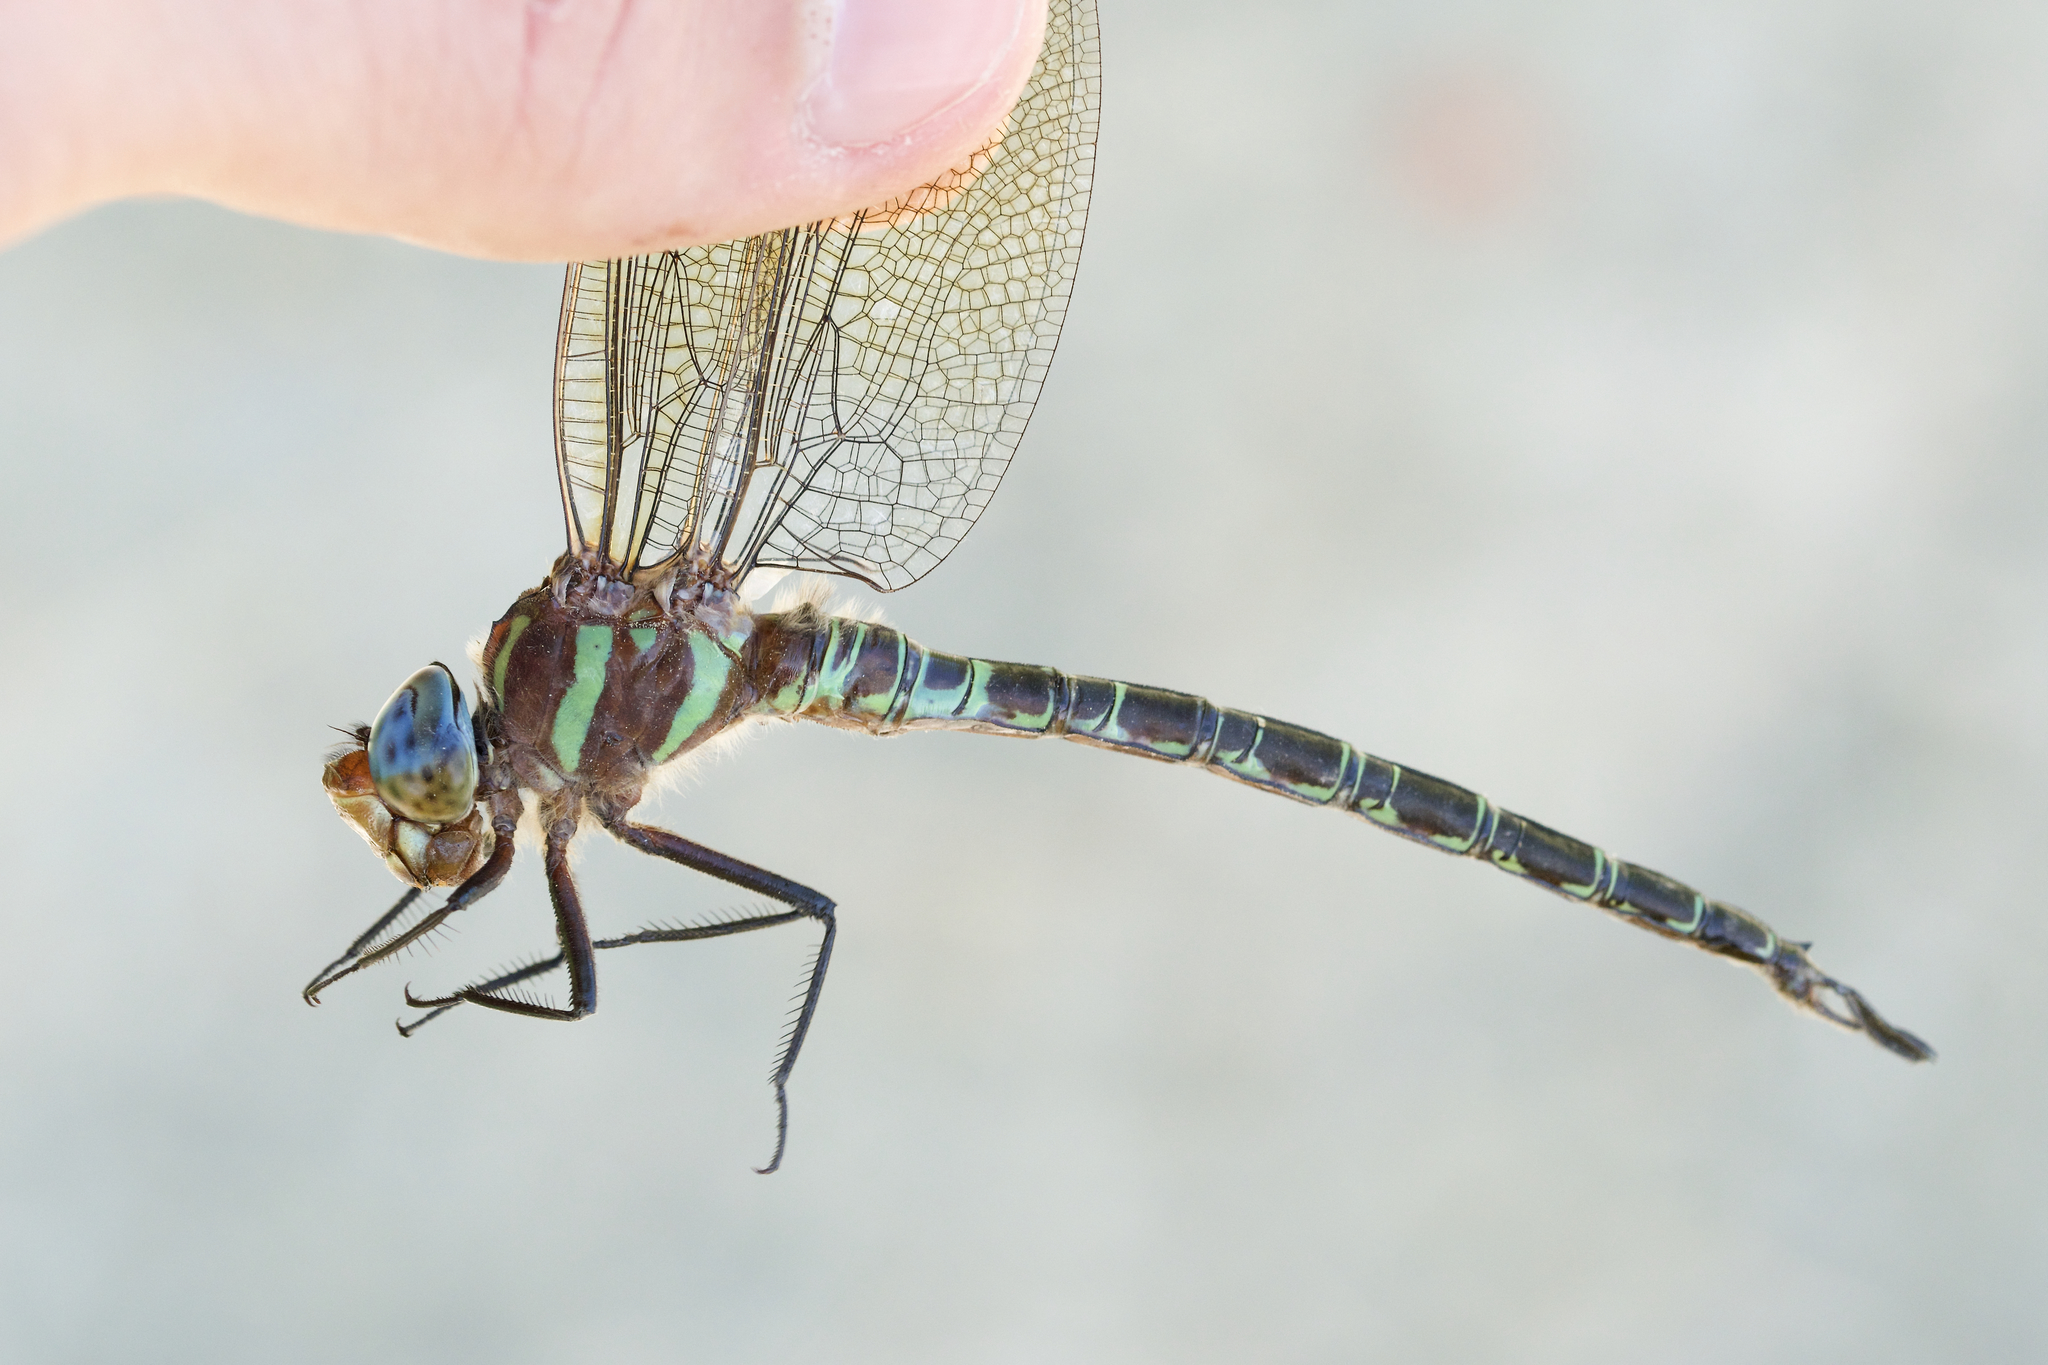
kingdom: Animalia
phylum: Arthropoda
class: Insecta
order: Odonata
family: Aeshnidae
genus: Epiaeschna
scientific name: Epiaeschna heros
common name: Swamp darner
